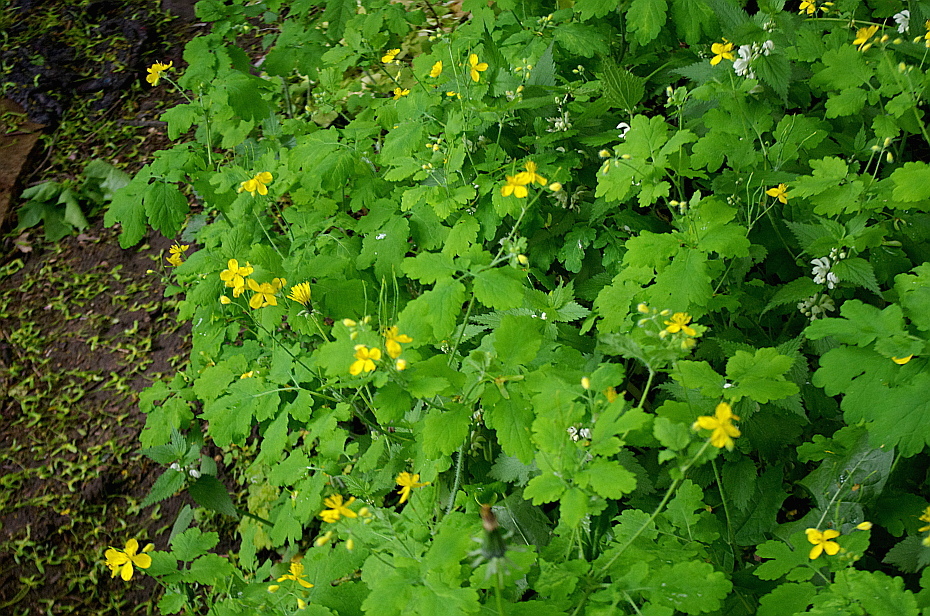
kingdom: Plantae
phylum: Tracheophyta
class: Magnoliopsida
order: Ranunculales
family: Papaveraceae
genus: Chelidonium
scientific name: Chelidonium majus
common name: Greater celandine
